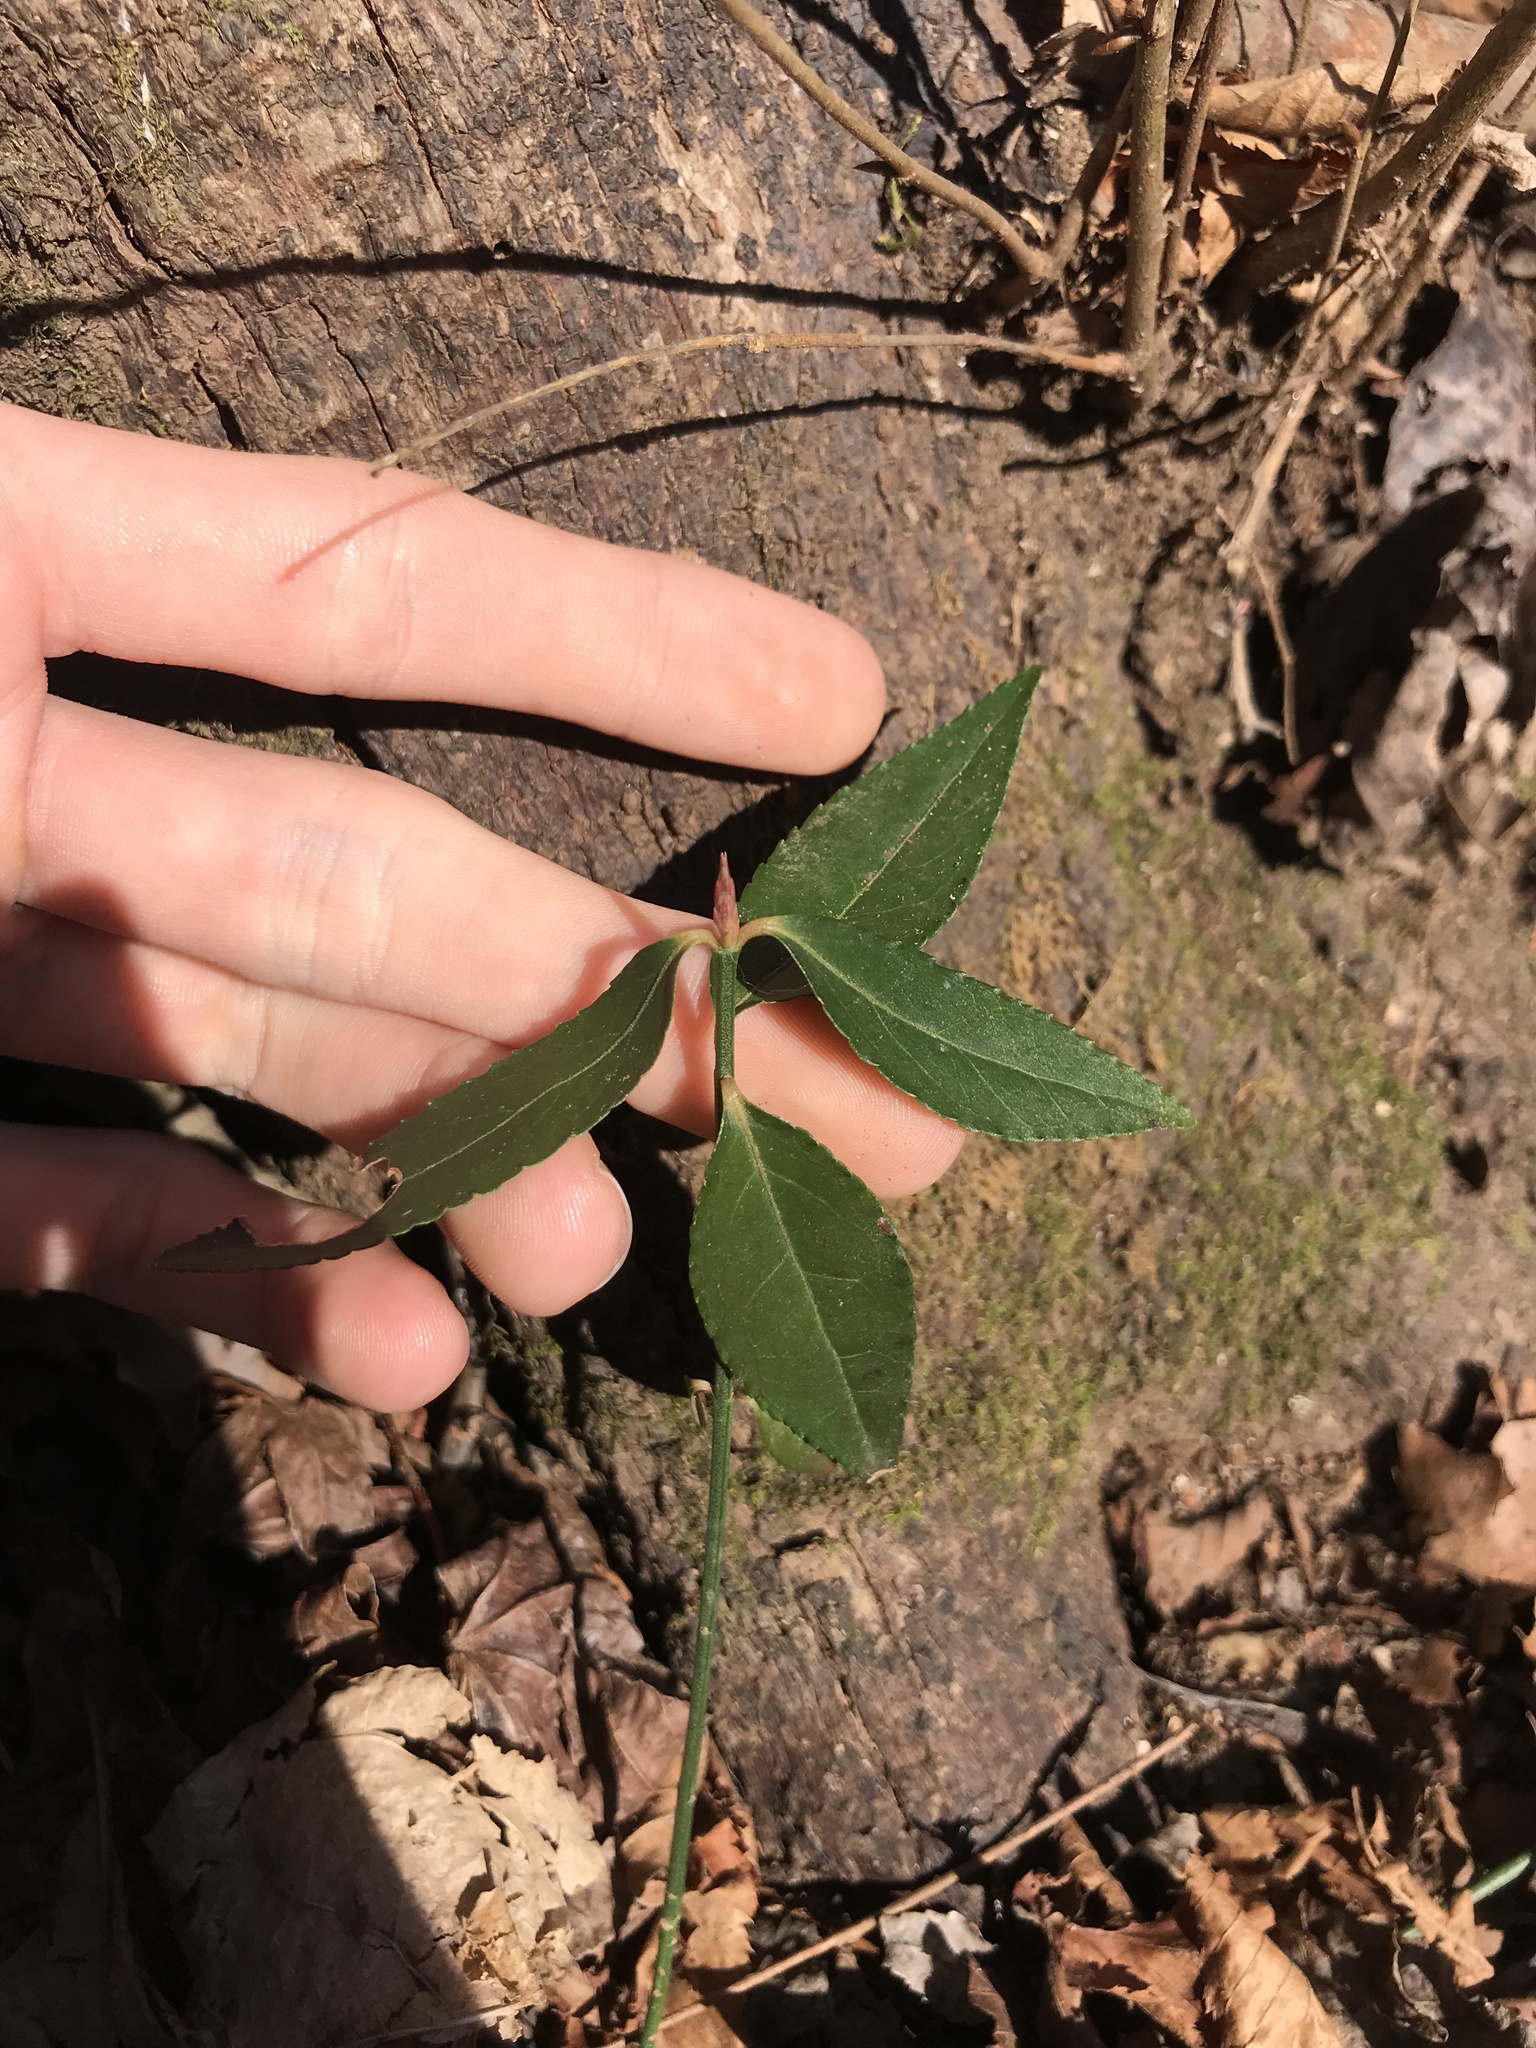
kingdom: Plantae
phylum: Tracheophyta
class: Magnoliopsida
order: Celastrales
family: Celastraceae
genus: Euonymus
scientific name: Euonymus americanus
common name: Bursting-heart
